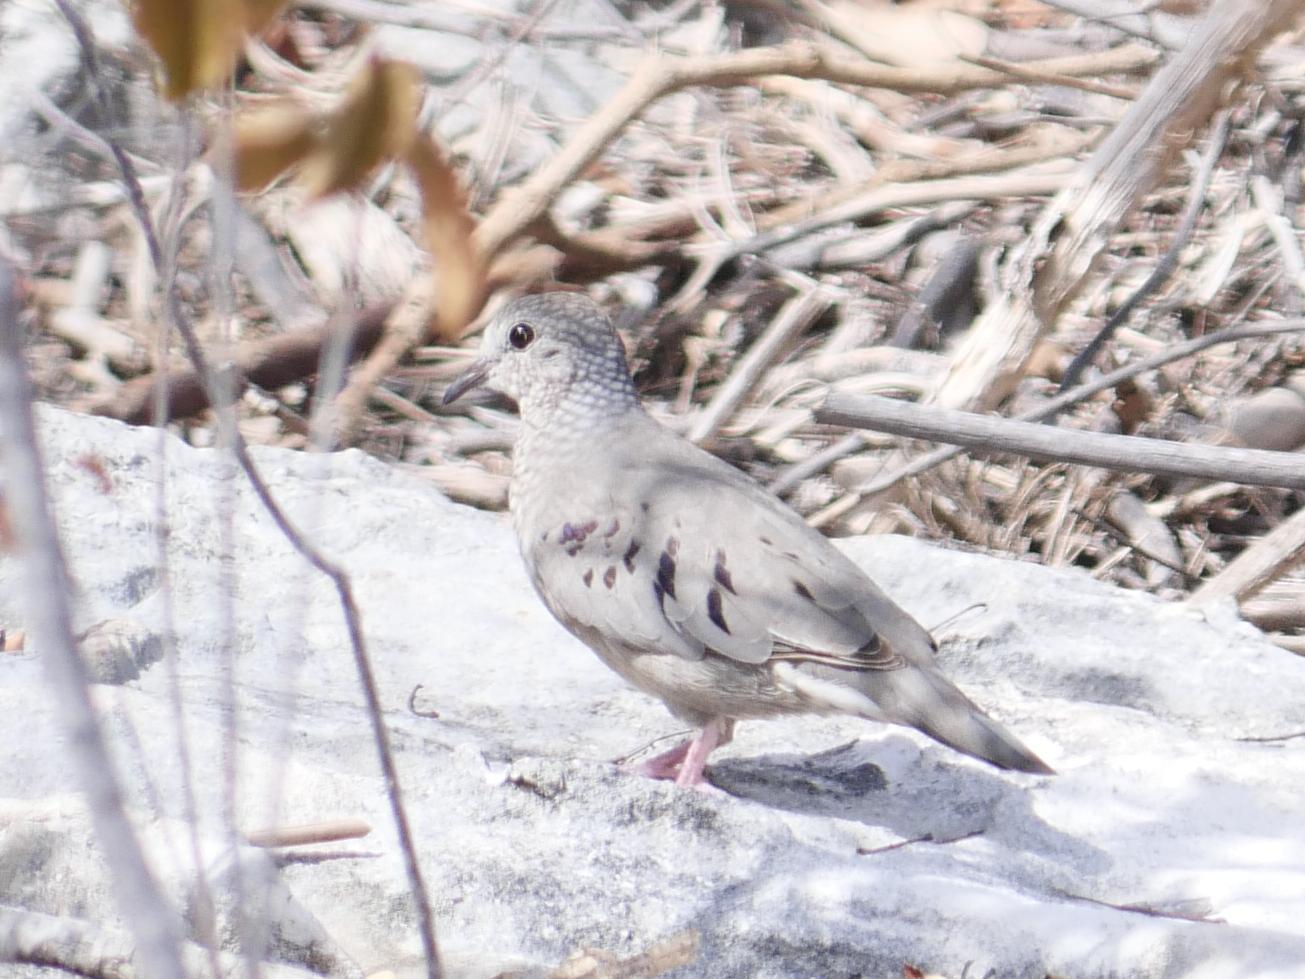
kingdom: Animalia
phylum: Chordata
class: Aves
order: Columbiformes
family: Columbidae
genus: Columbina
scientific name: Columbina passerina
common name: Common ground-dove
